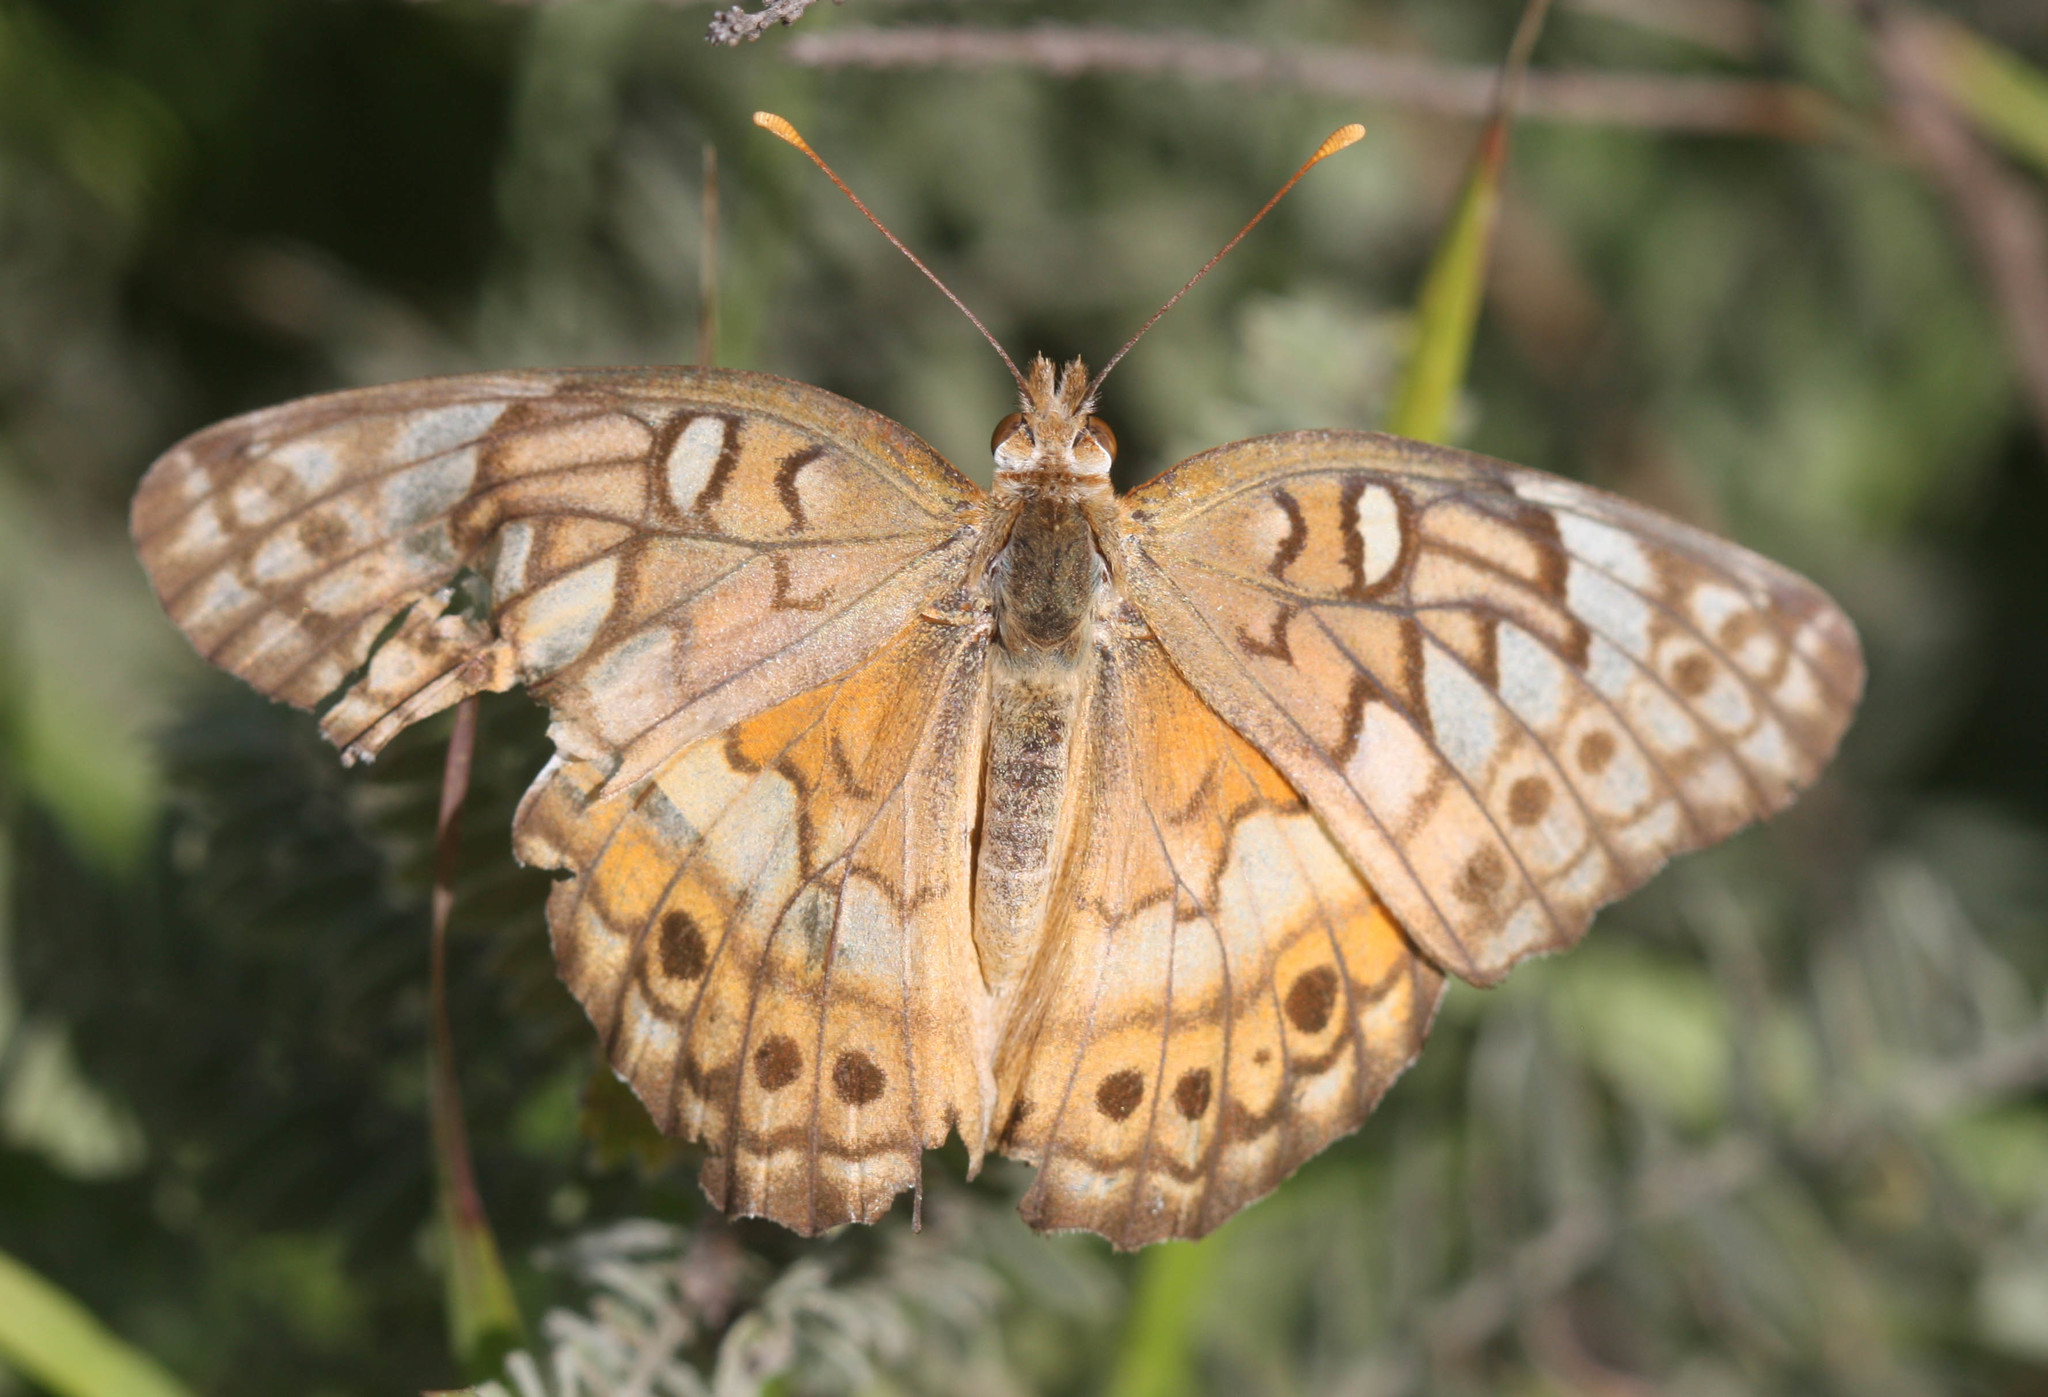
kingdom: Animalia
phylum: Arthropoda
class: Insecta
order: Lepidoptera
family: Nymphalidae
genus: Euptoieta
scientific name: Euptoieta claudia
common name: Variegated fritillary
